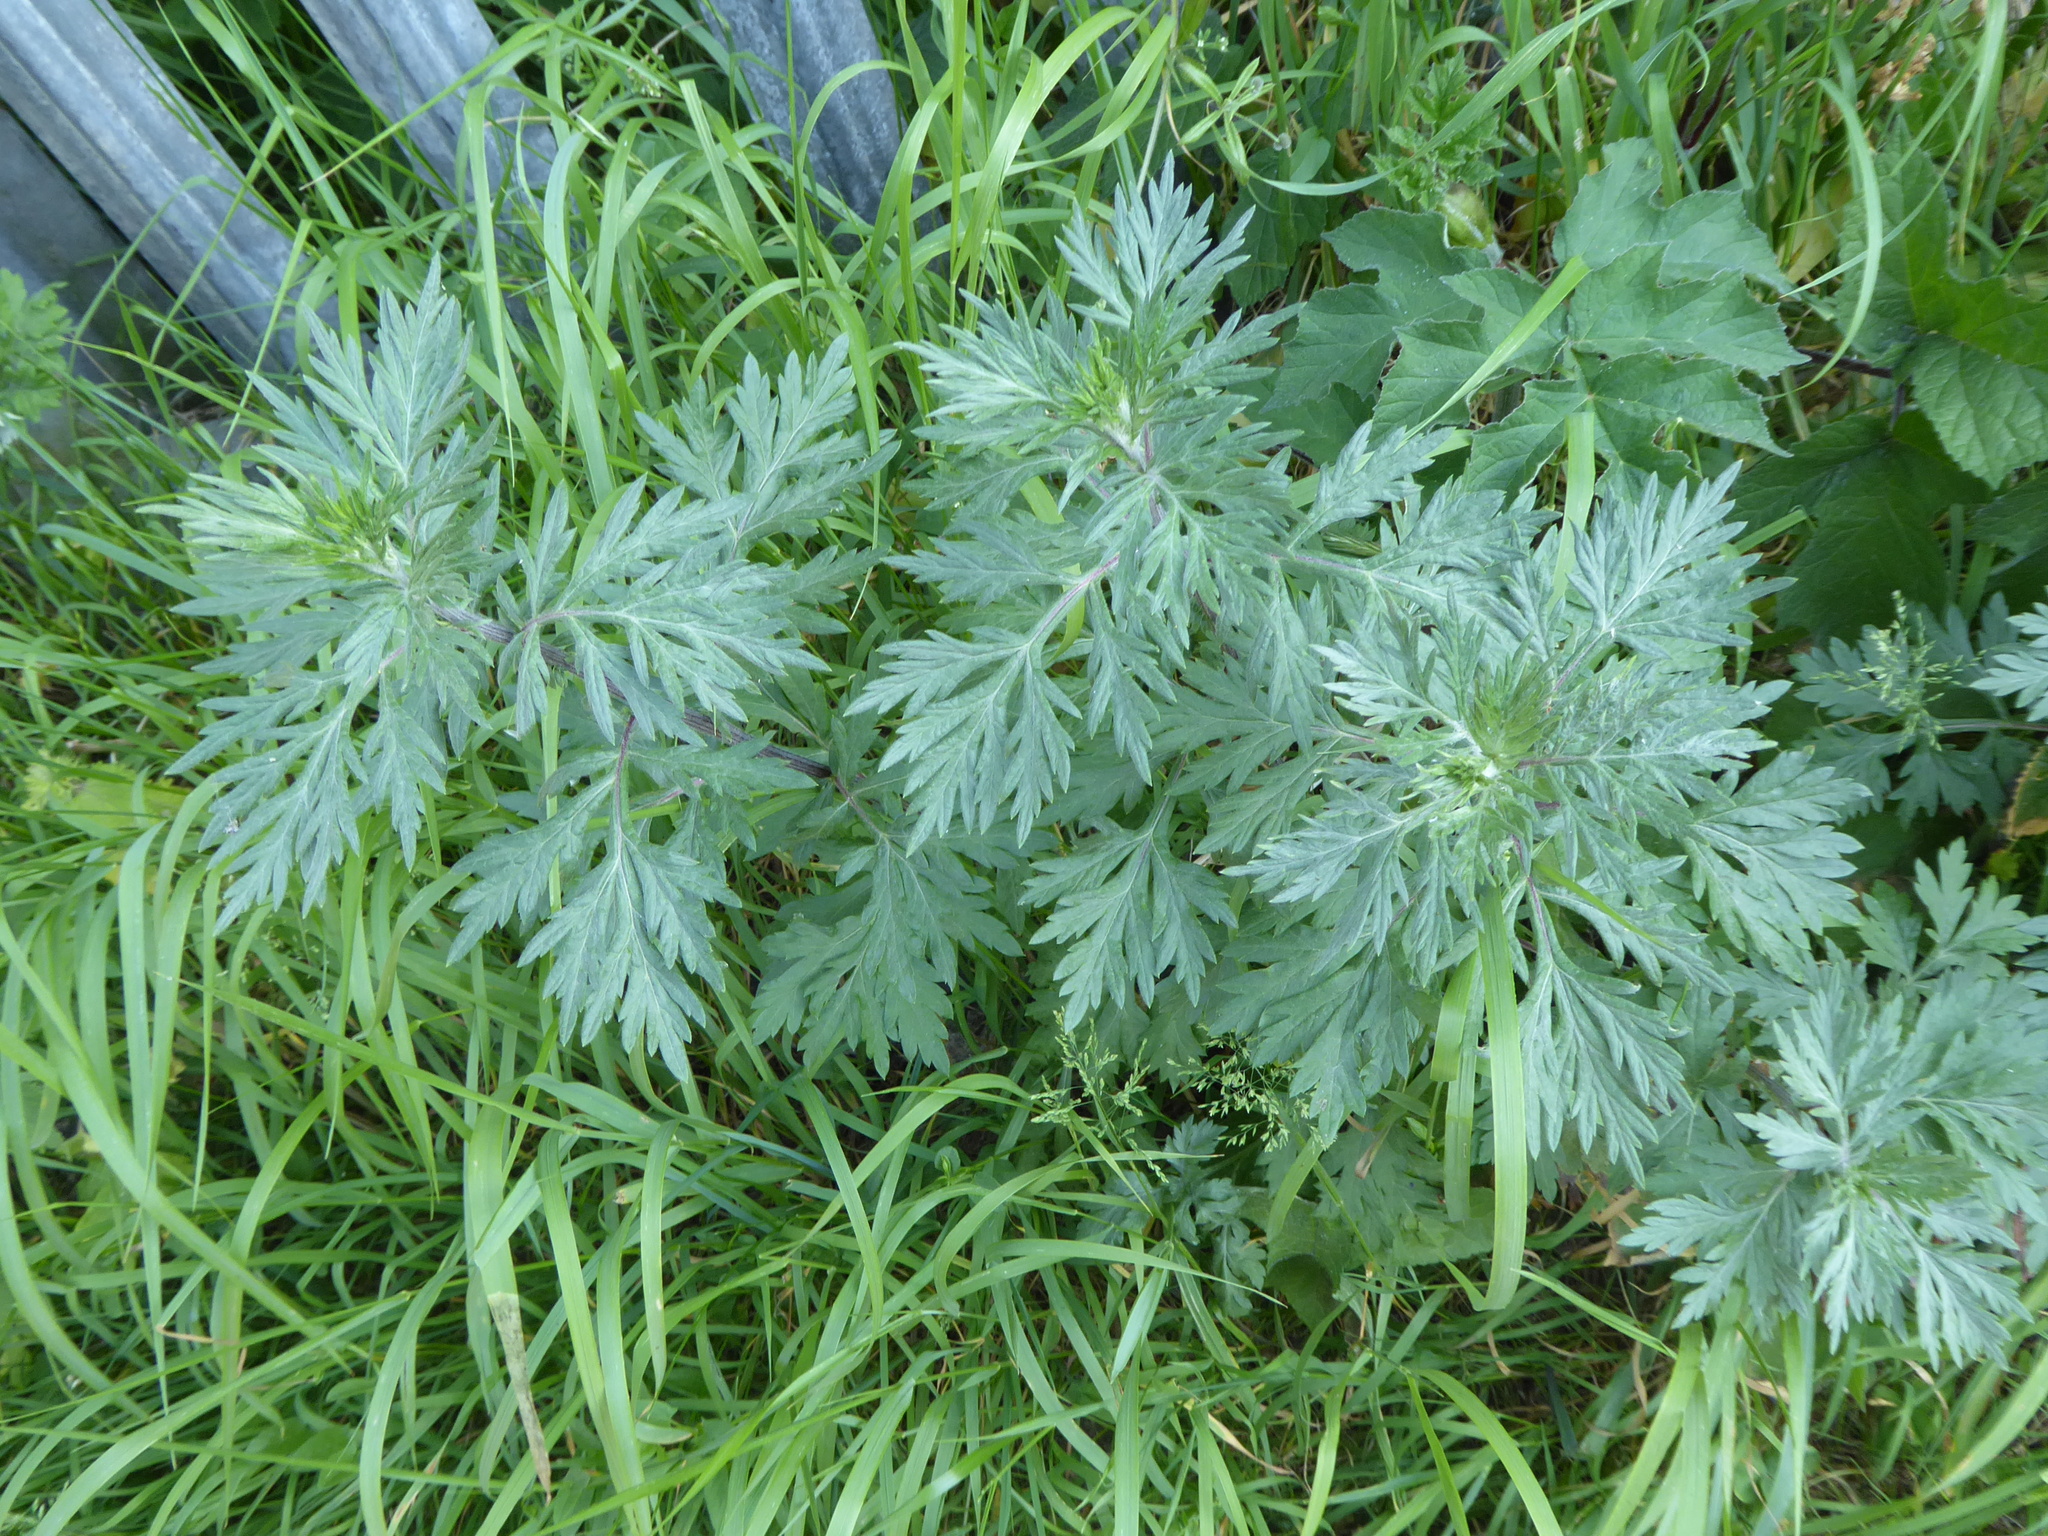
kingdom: Plantae
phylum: Tracheophyta
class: Magnoliopsida
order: Asterales
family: Asteraceae
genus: Artemisia
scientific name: Artemisia vulgaris
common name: Mugwort
